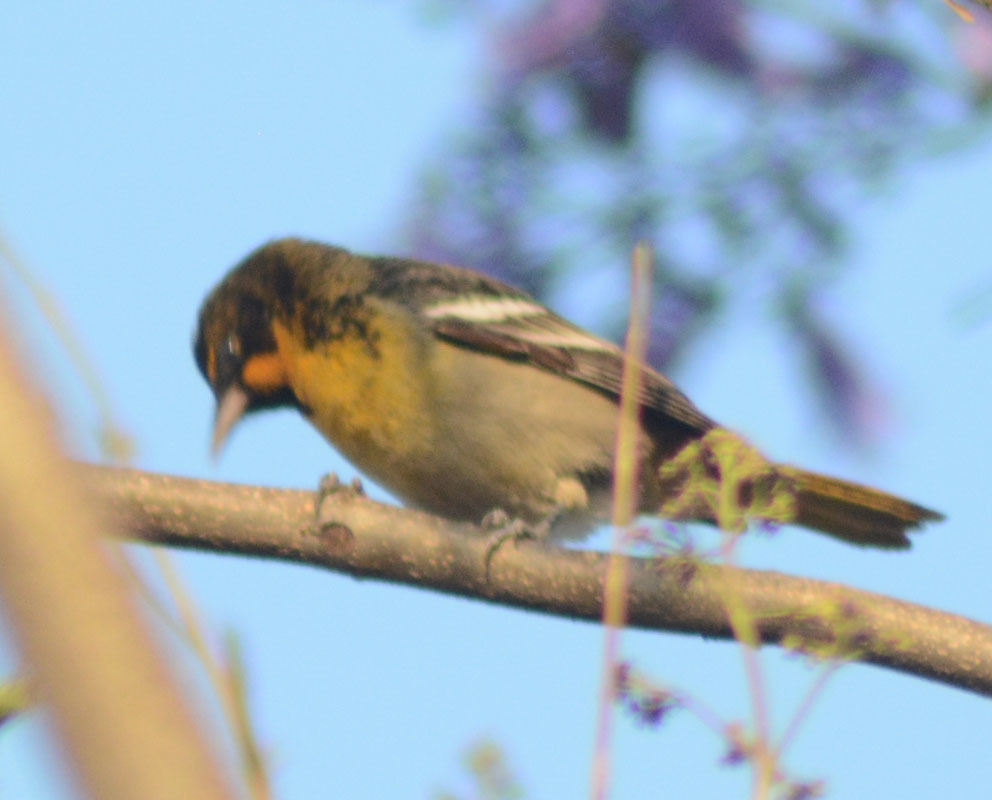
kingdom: Animalia
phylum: Chordata
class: Aves
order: Passeriformes
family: Icteridae
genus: Icterus
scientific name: Icterus abeillei
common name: Black-backed oriole
